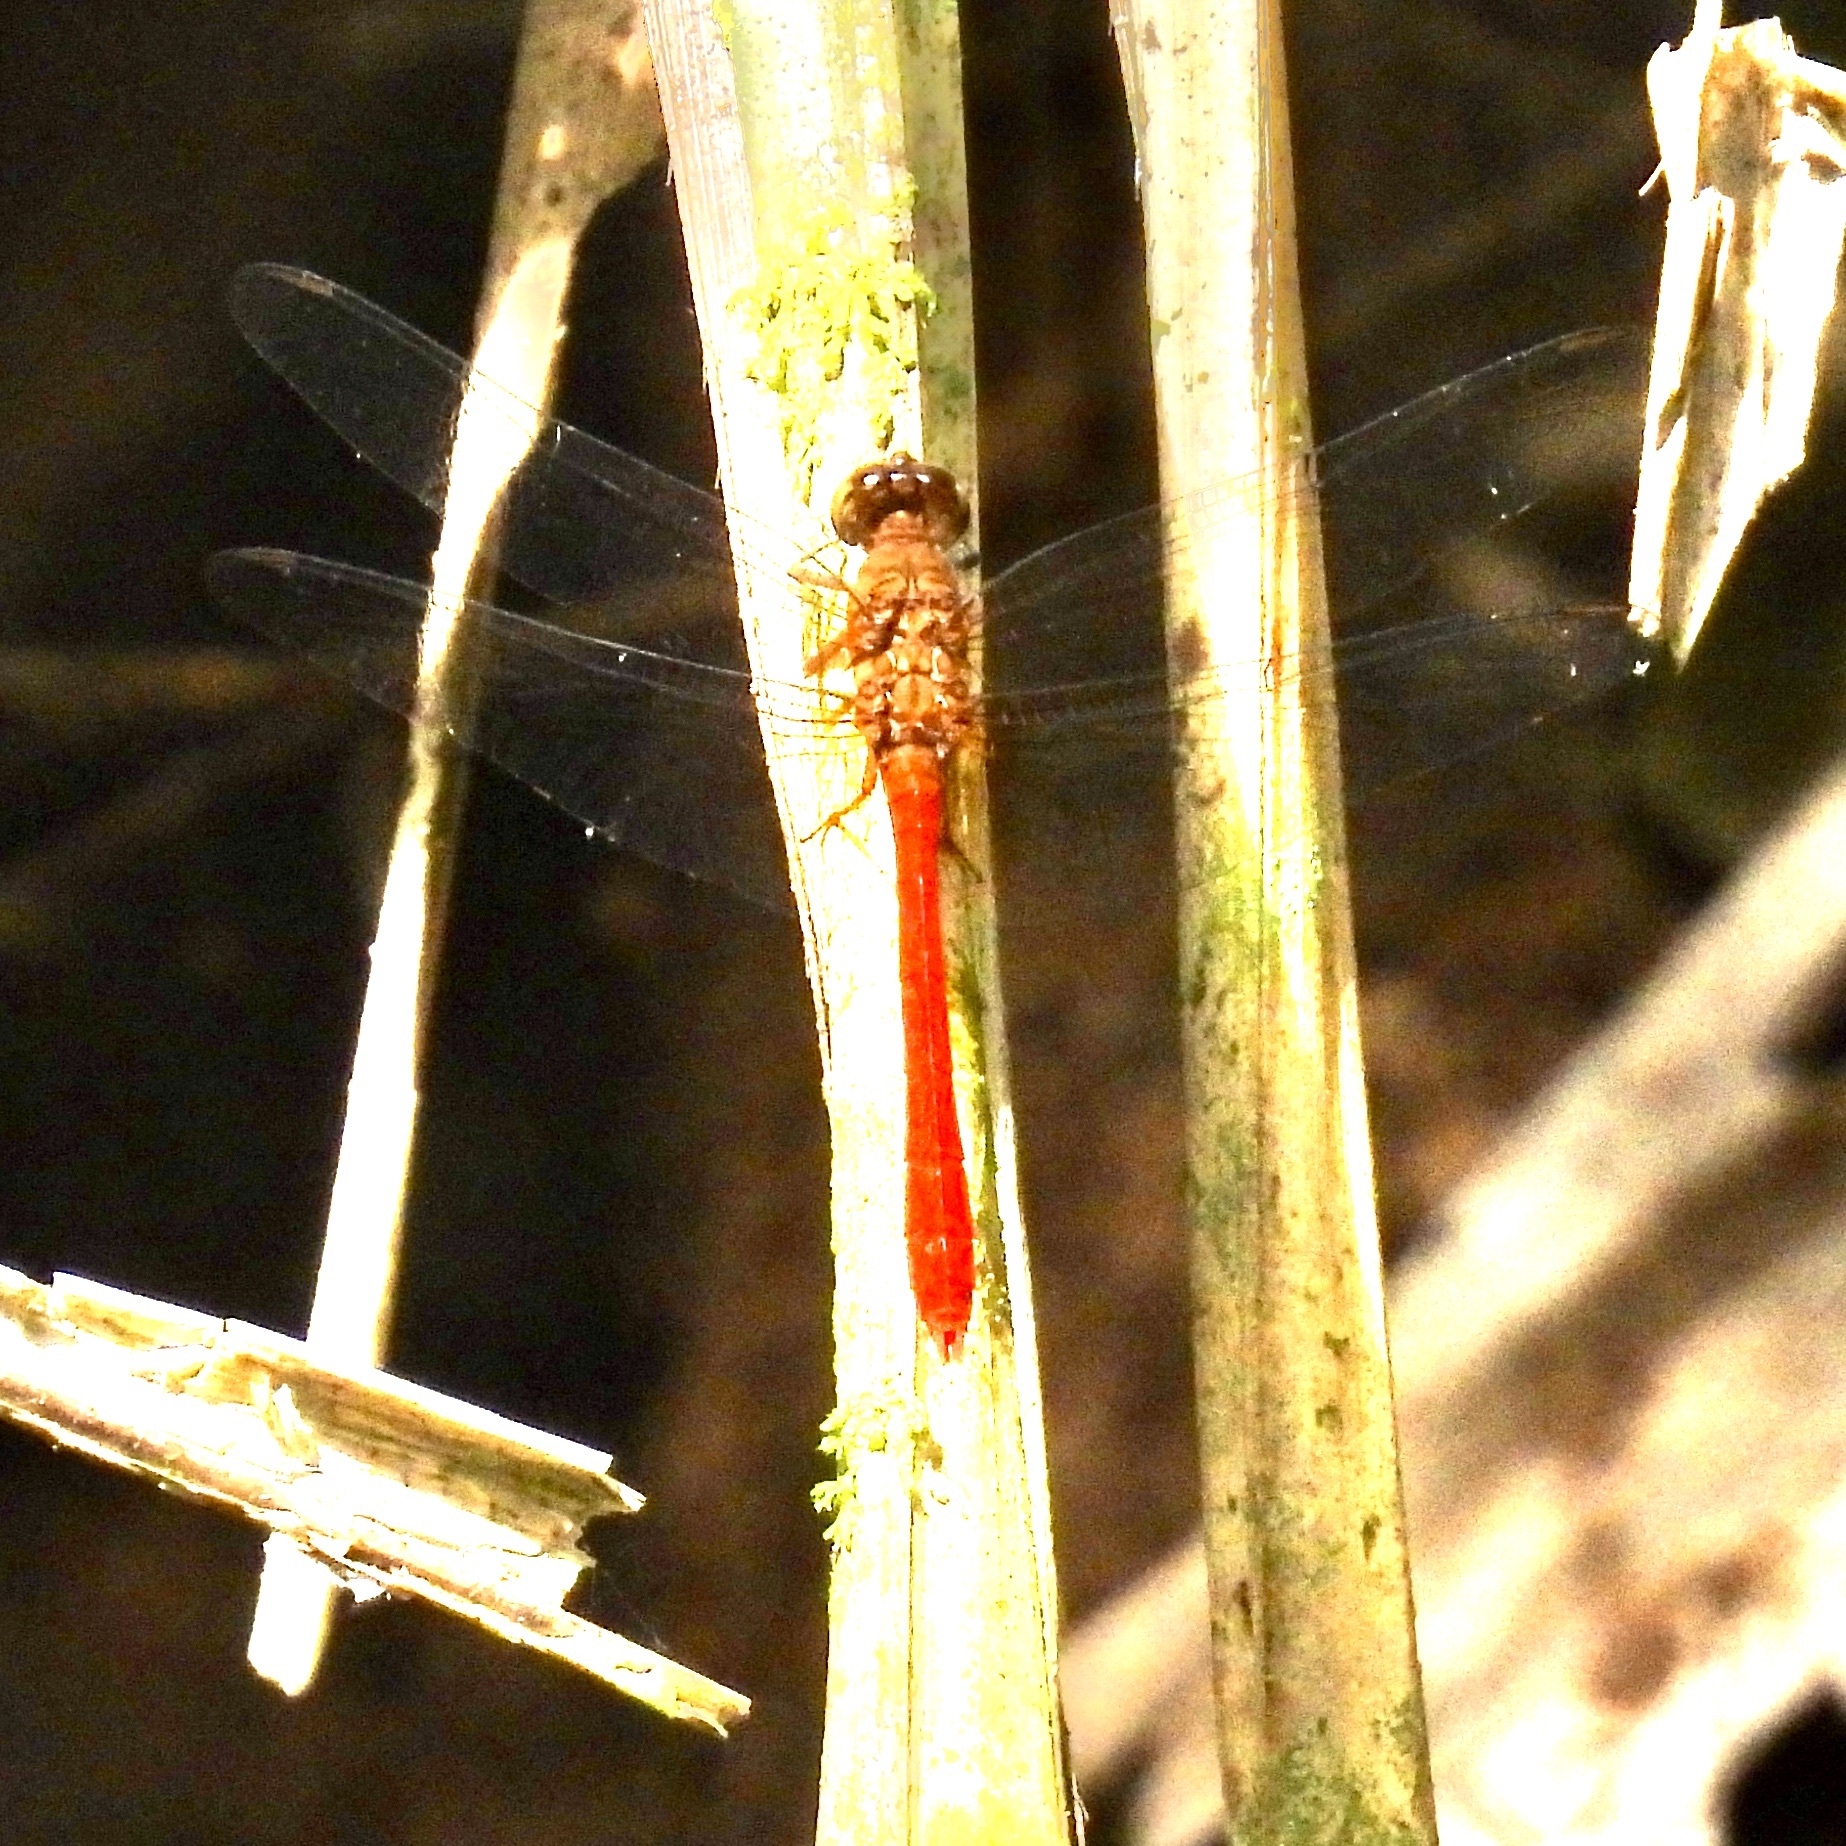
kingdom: Animalia
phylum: Arthropoda
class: Insecta
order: Odonata
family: Libellulidae
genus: Rhodopygia
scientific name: Rhodopygia hinei
